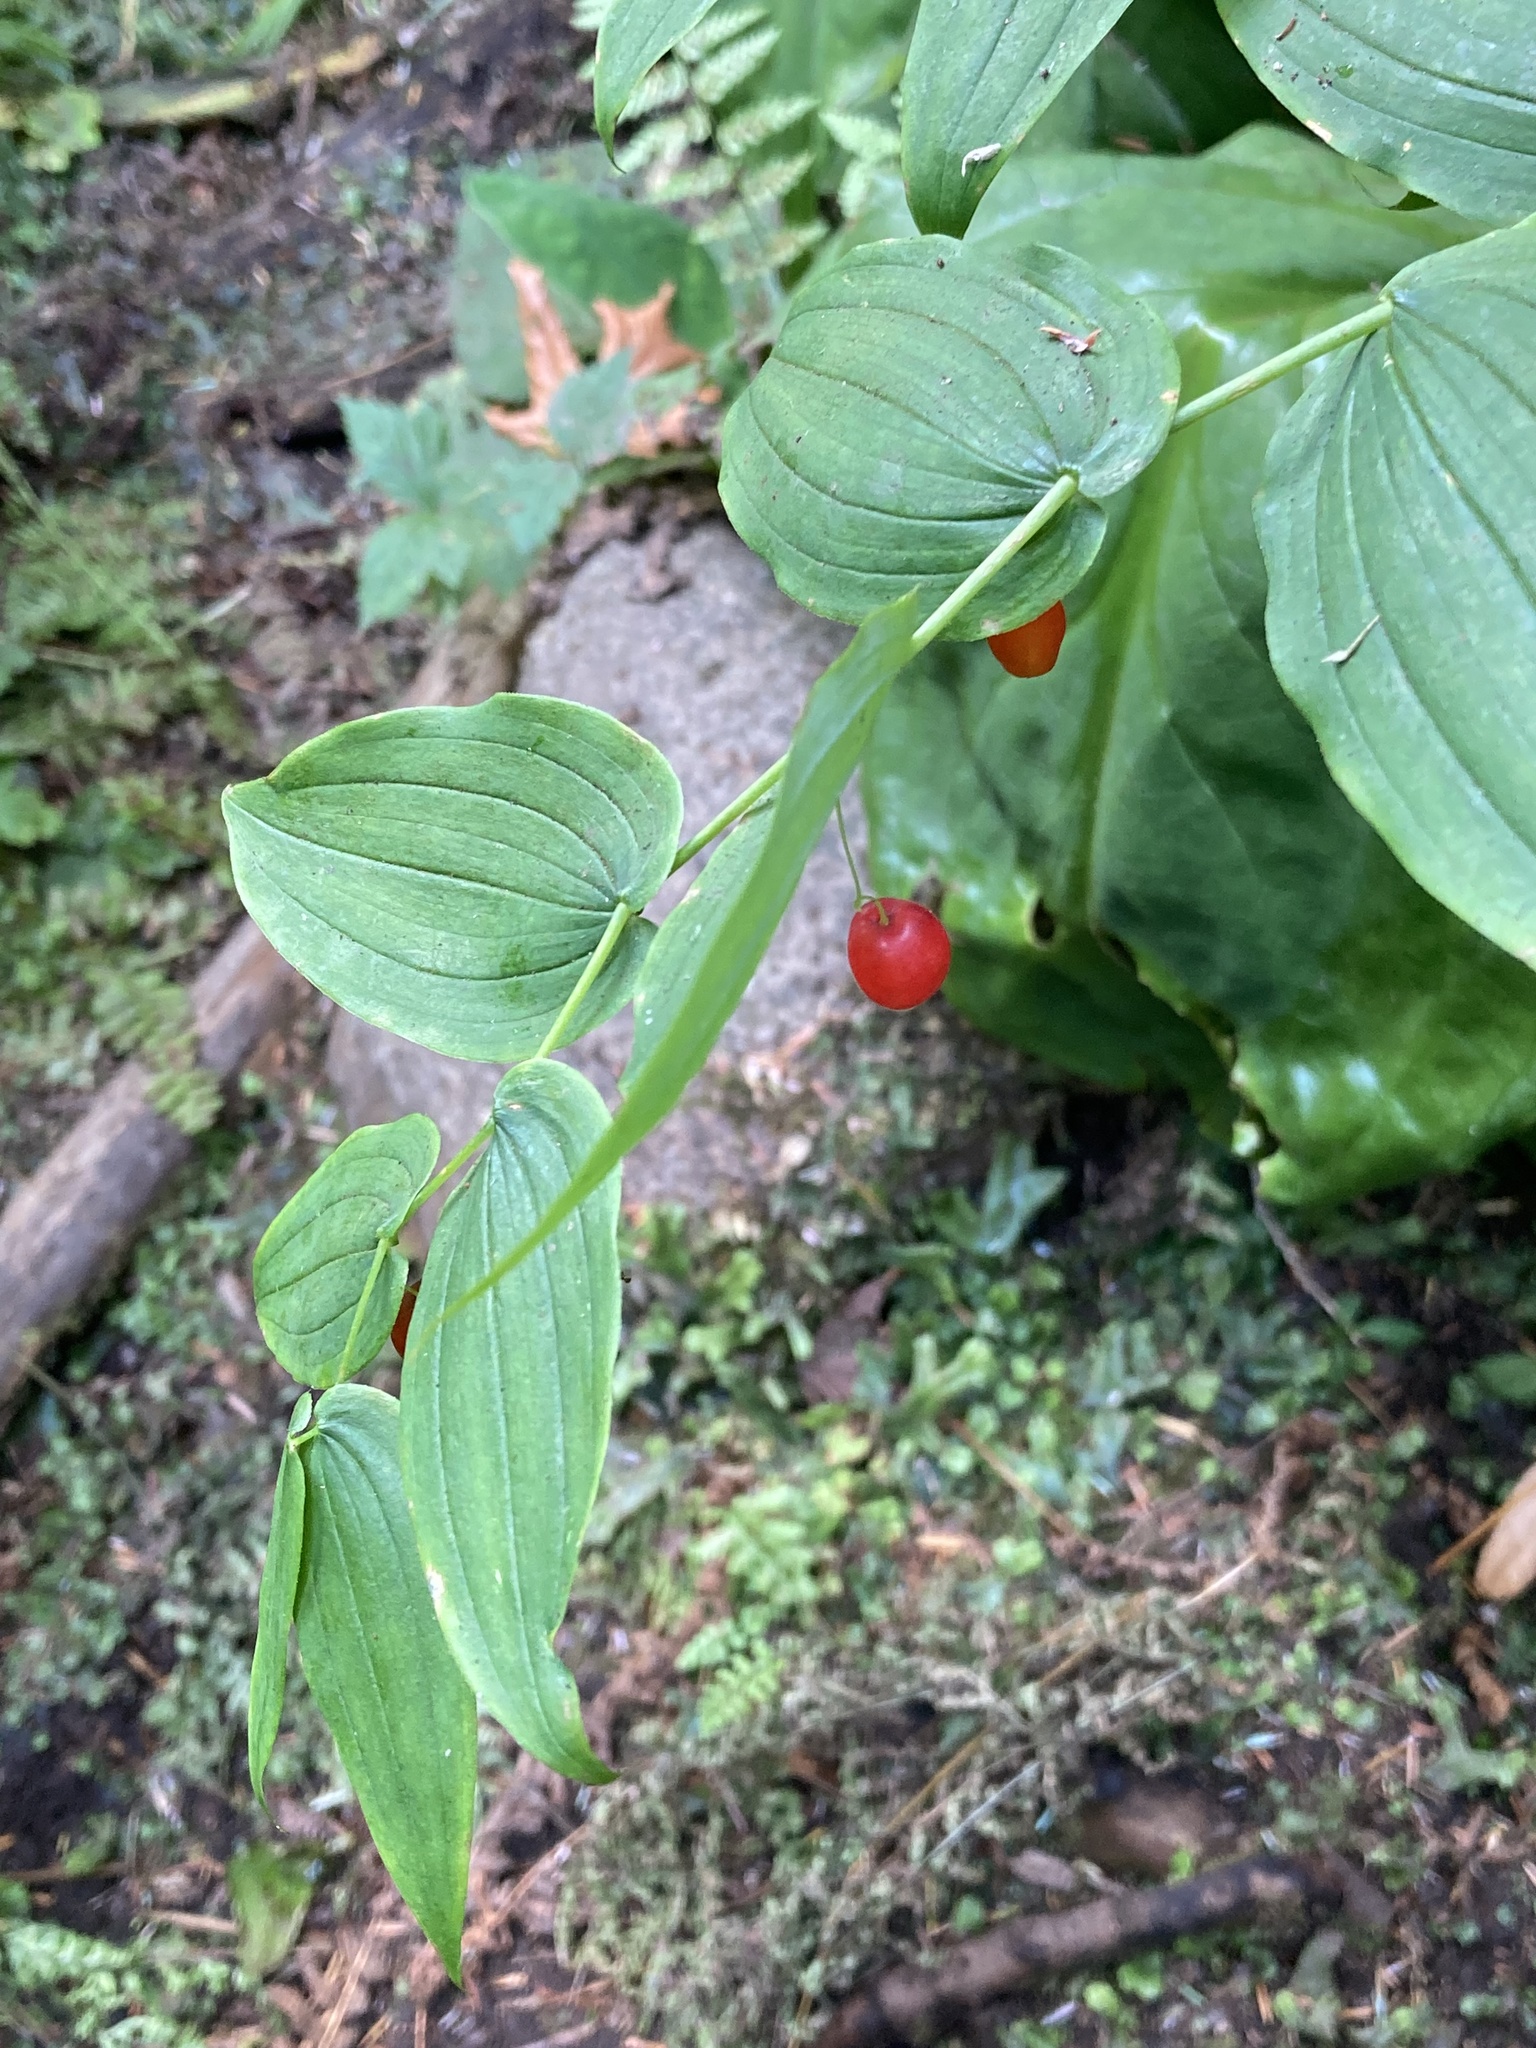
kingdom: Plantae
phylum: Tracheophyta
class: Liliopsida
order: Liliales
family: Liliaceae
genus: Streptopus
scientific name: Streptopus amplexifolius
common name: Clasp twisted stalk
